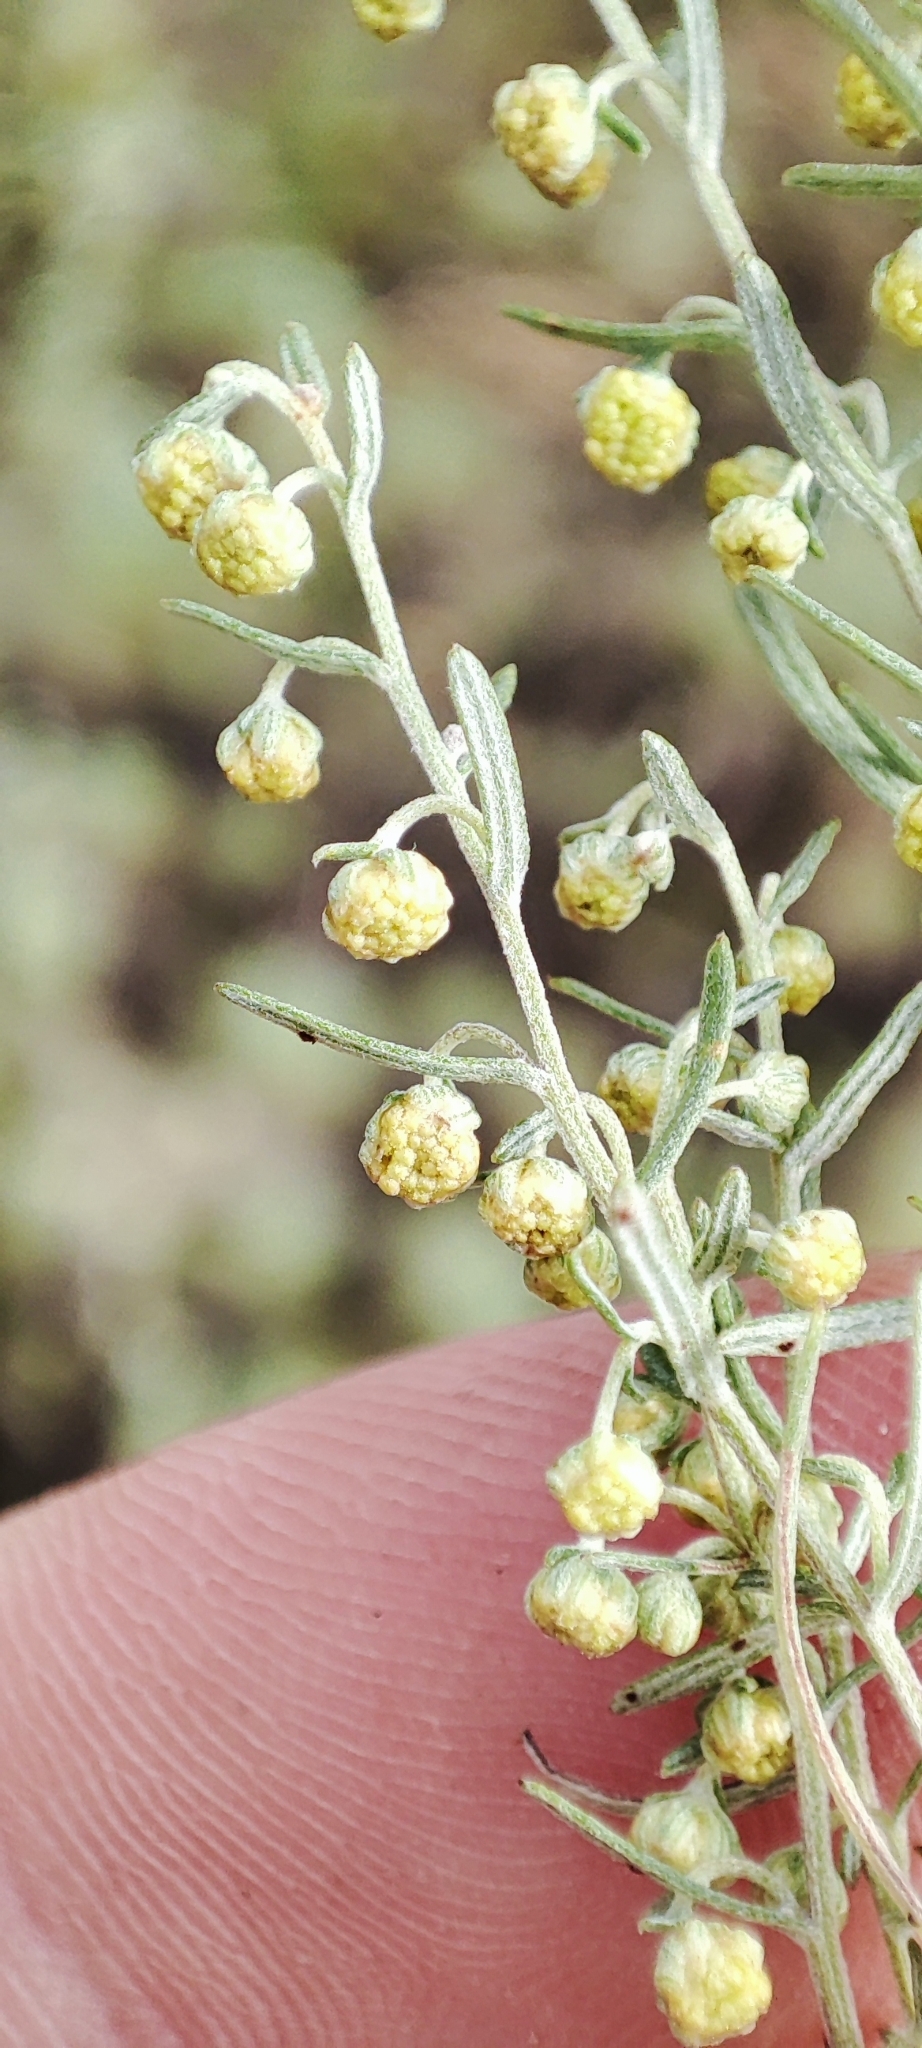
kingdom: Plantae
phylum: Tracheophyta
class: Magnoliopsida
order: Asterales
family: Asteraceae
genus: Artemisia
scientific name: Artemisia pontica
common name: Roman wormwood
